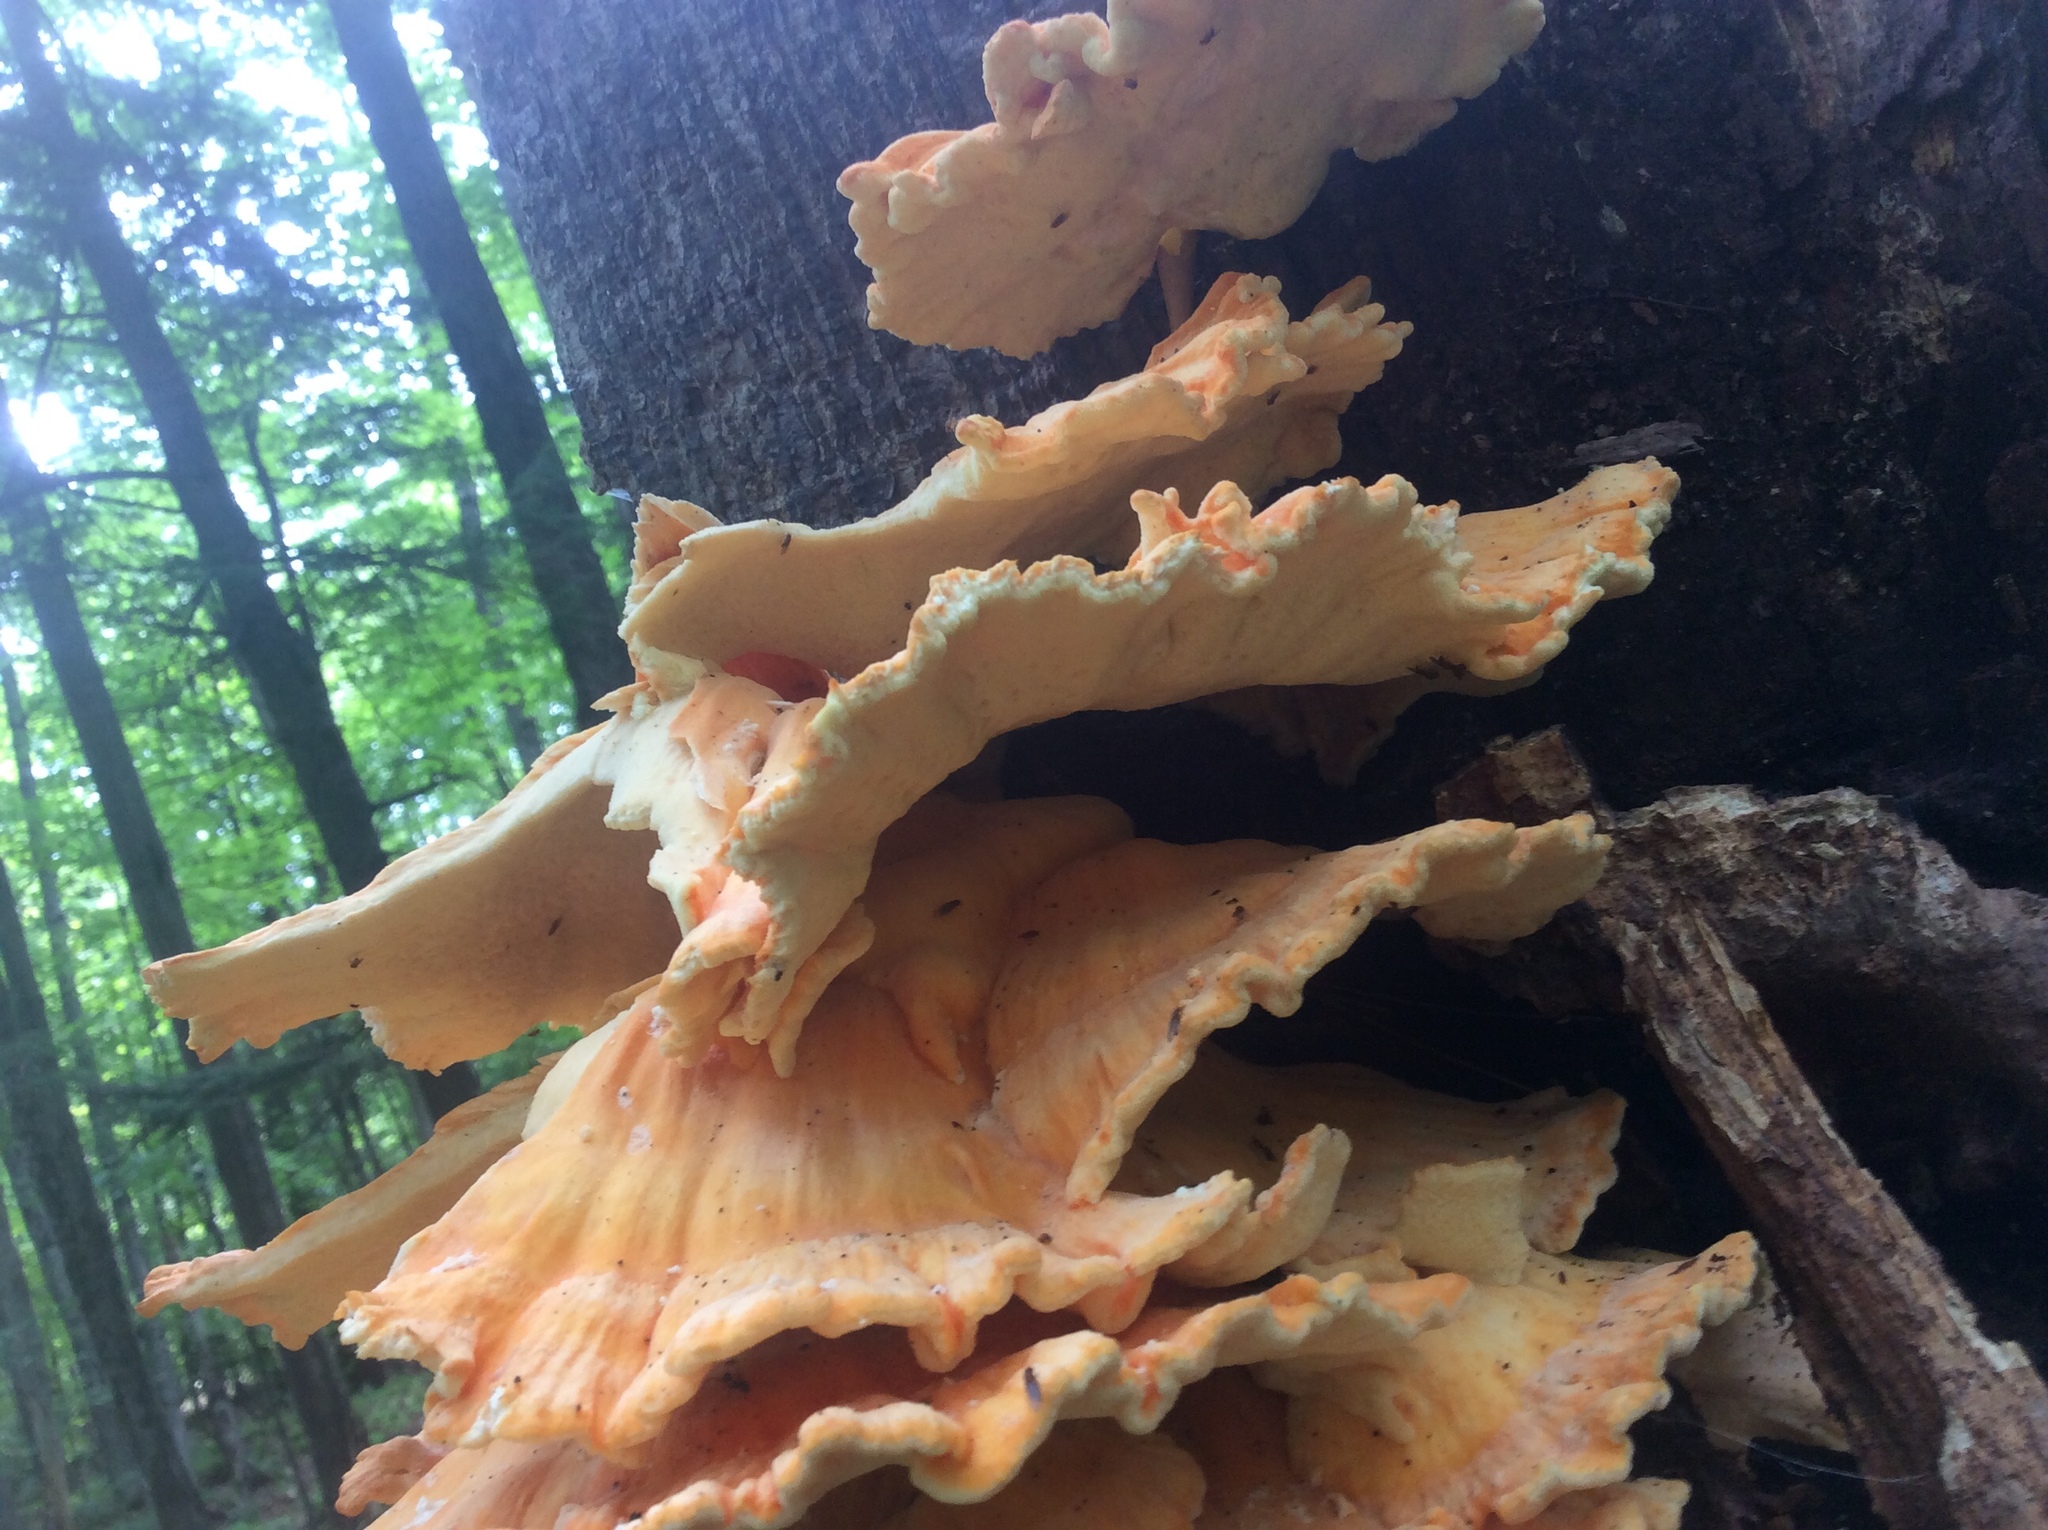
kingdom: Fungi
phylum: Basidiomycota
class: Agaricomycetes
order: Polyporales
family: Laetiporaceae
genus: Laetiporus
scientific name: Laetiporus sulphureus
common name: Chicken of the woods
